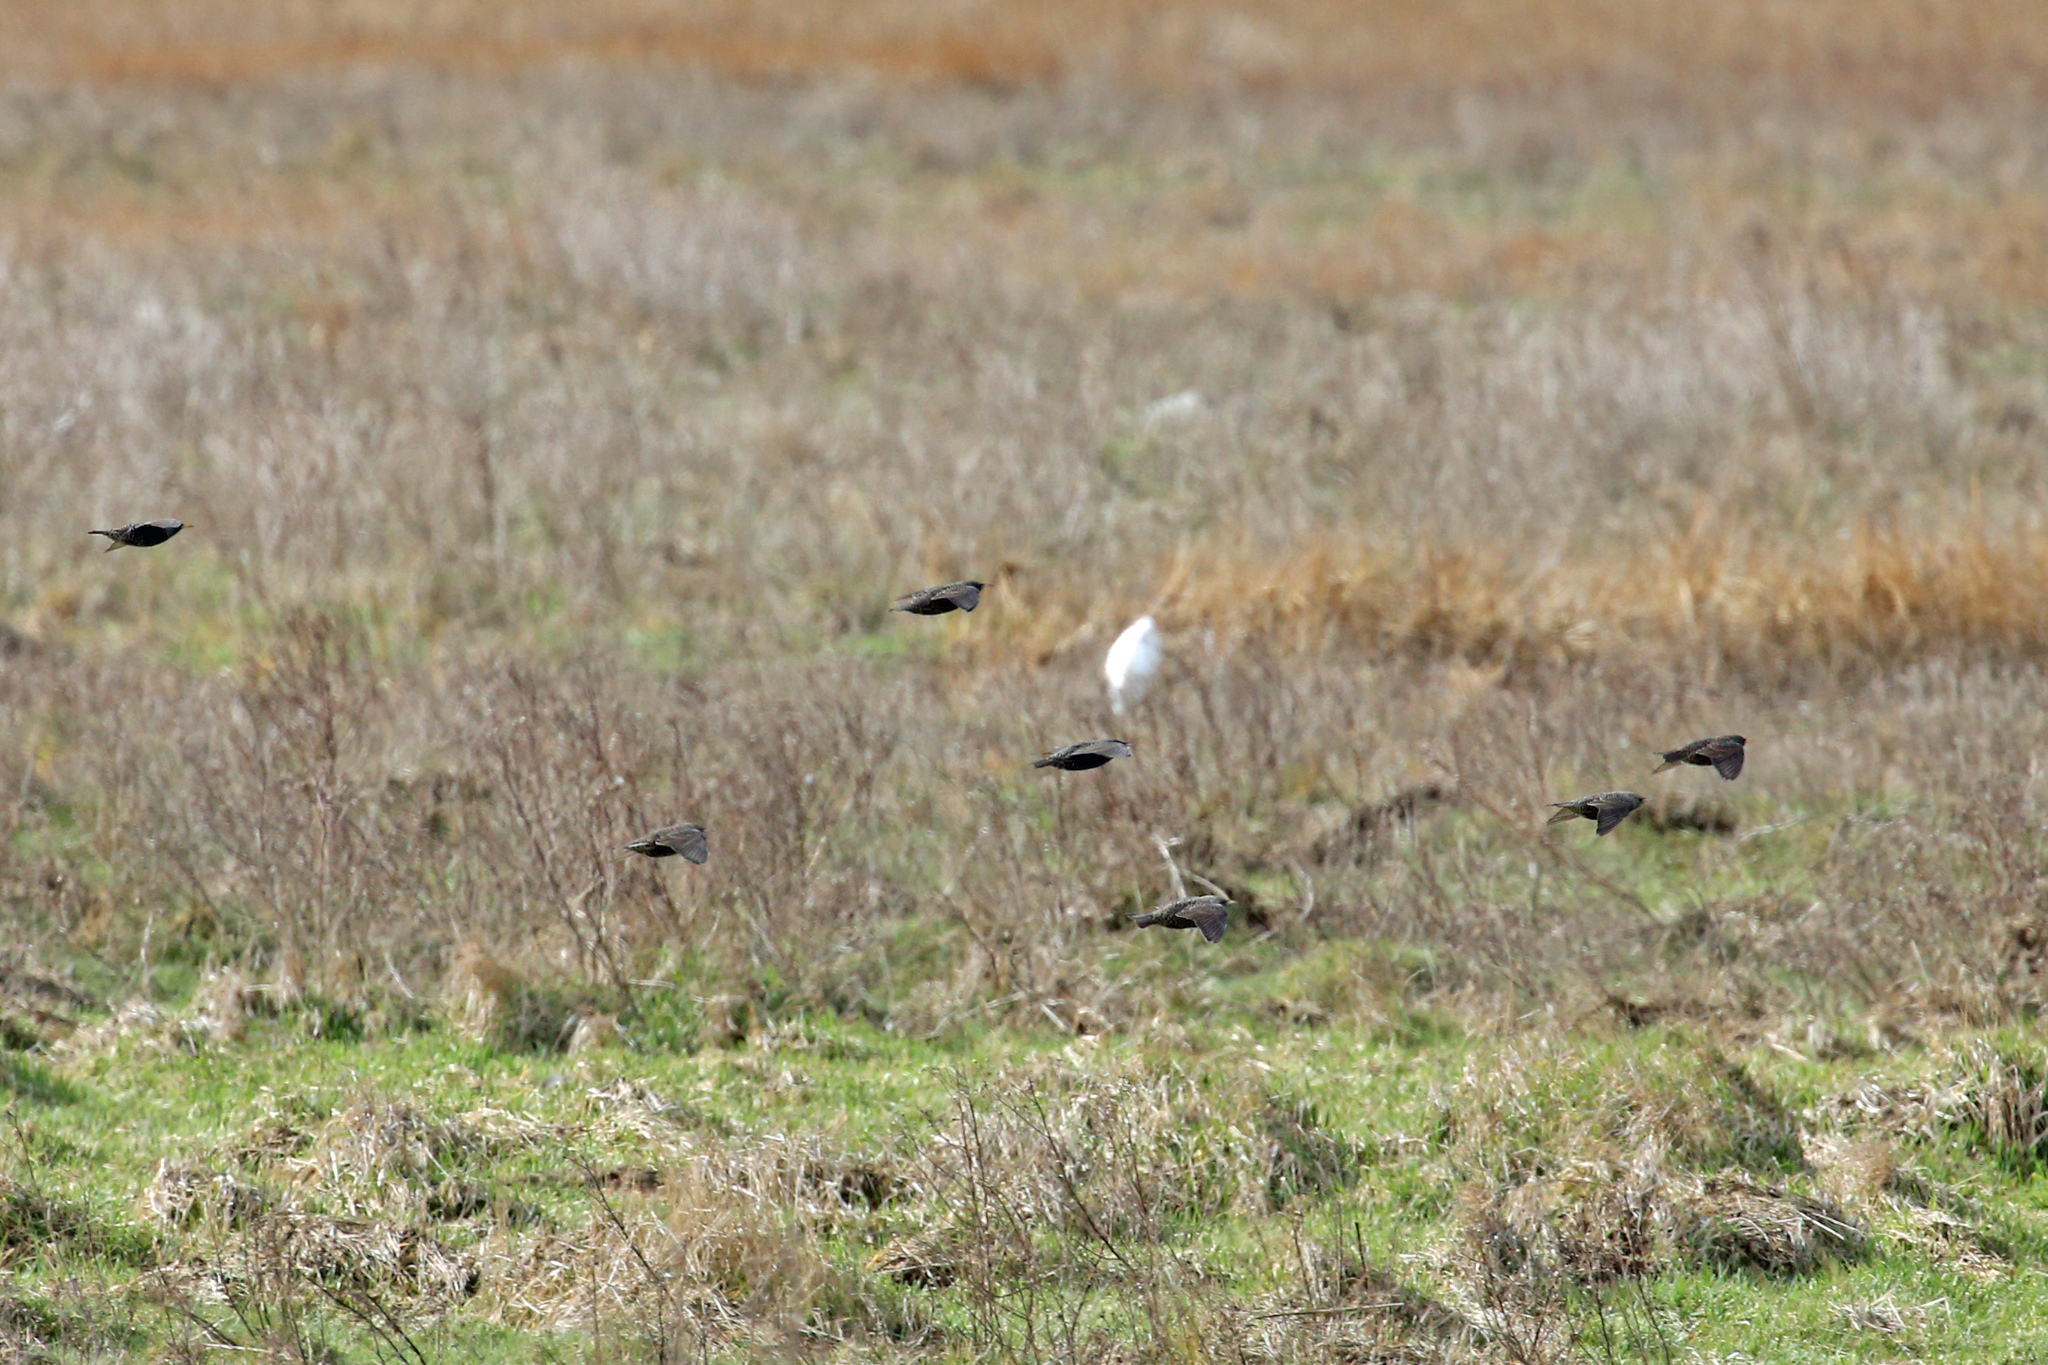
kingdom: Animalia
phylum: Chordata
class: Aves
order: Passeriformes
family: Sturnidae
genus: Sturnus
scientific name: Sturnus vulgaris
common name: Common starling
